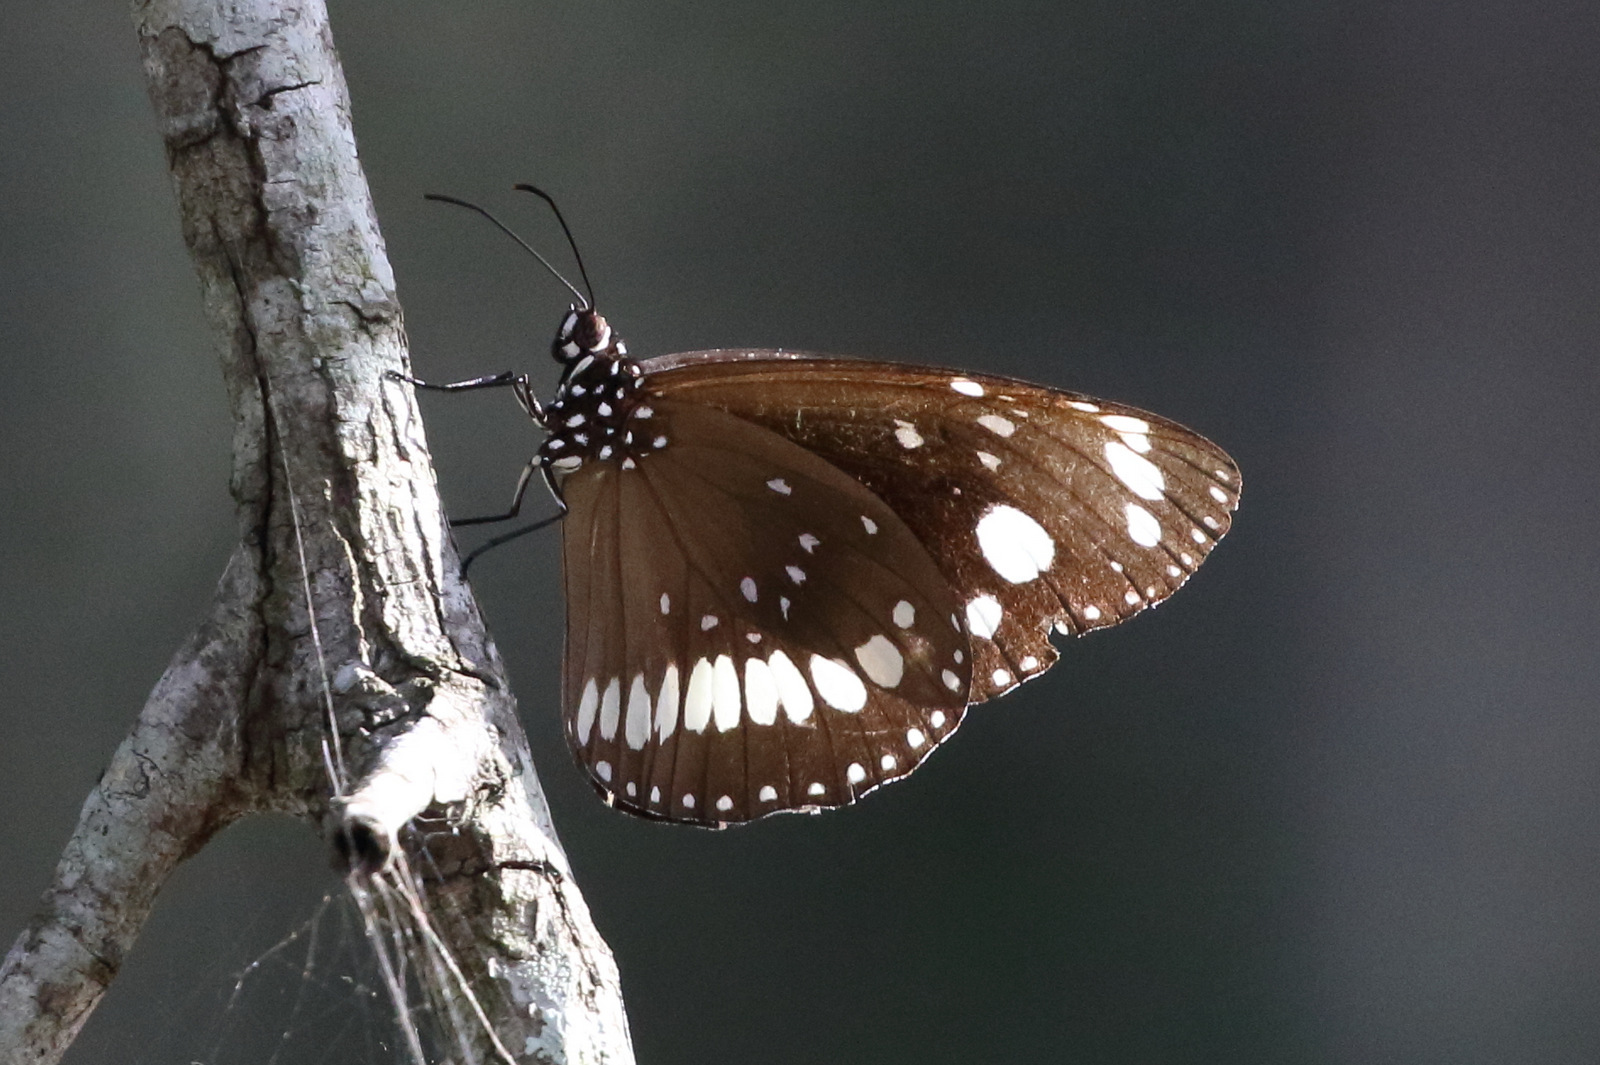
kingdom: Animalia
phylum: Arthropoda
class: Insecta
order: Lepidoptera
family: Nymphalidae
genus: Euploea
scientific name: Euploea core
